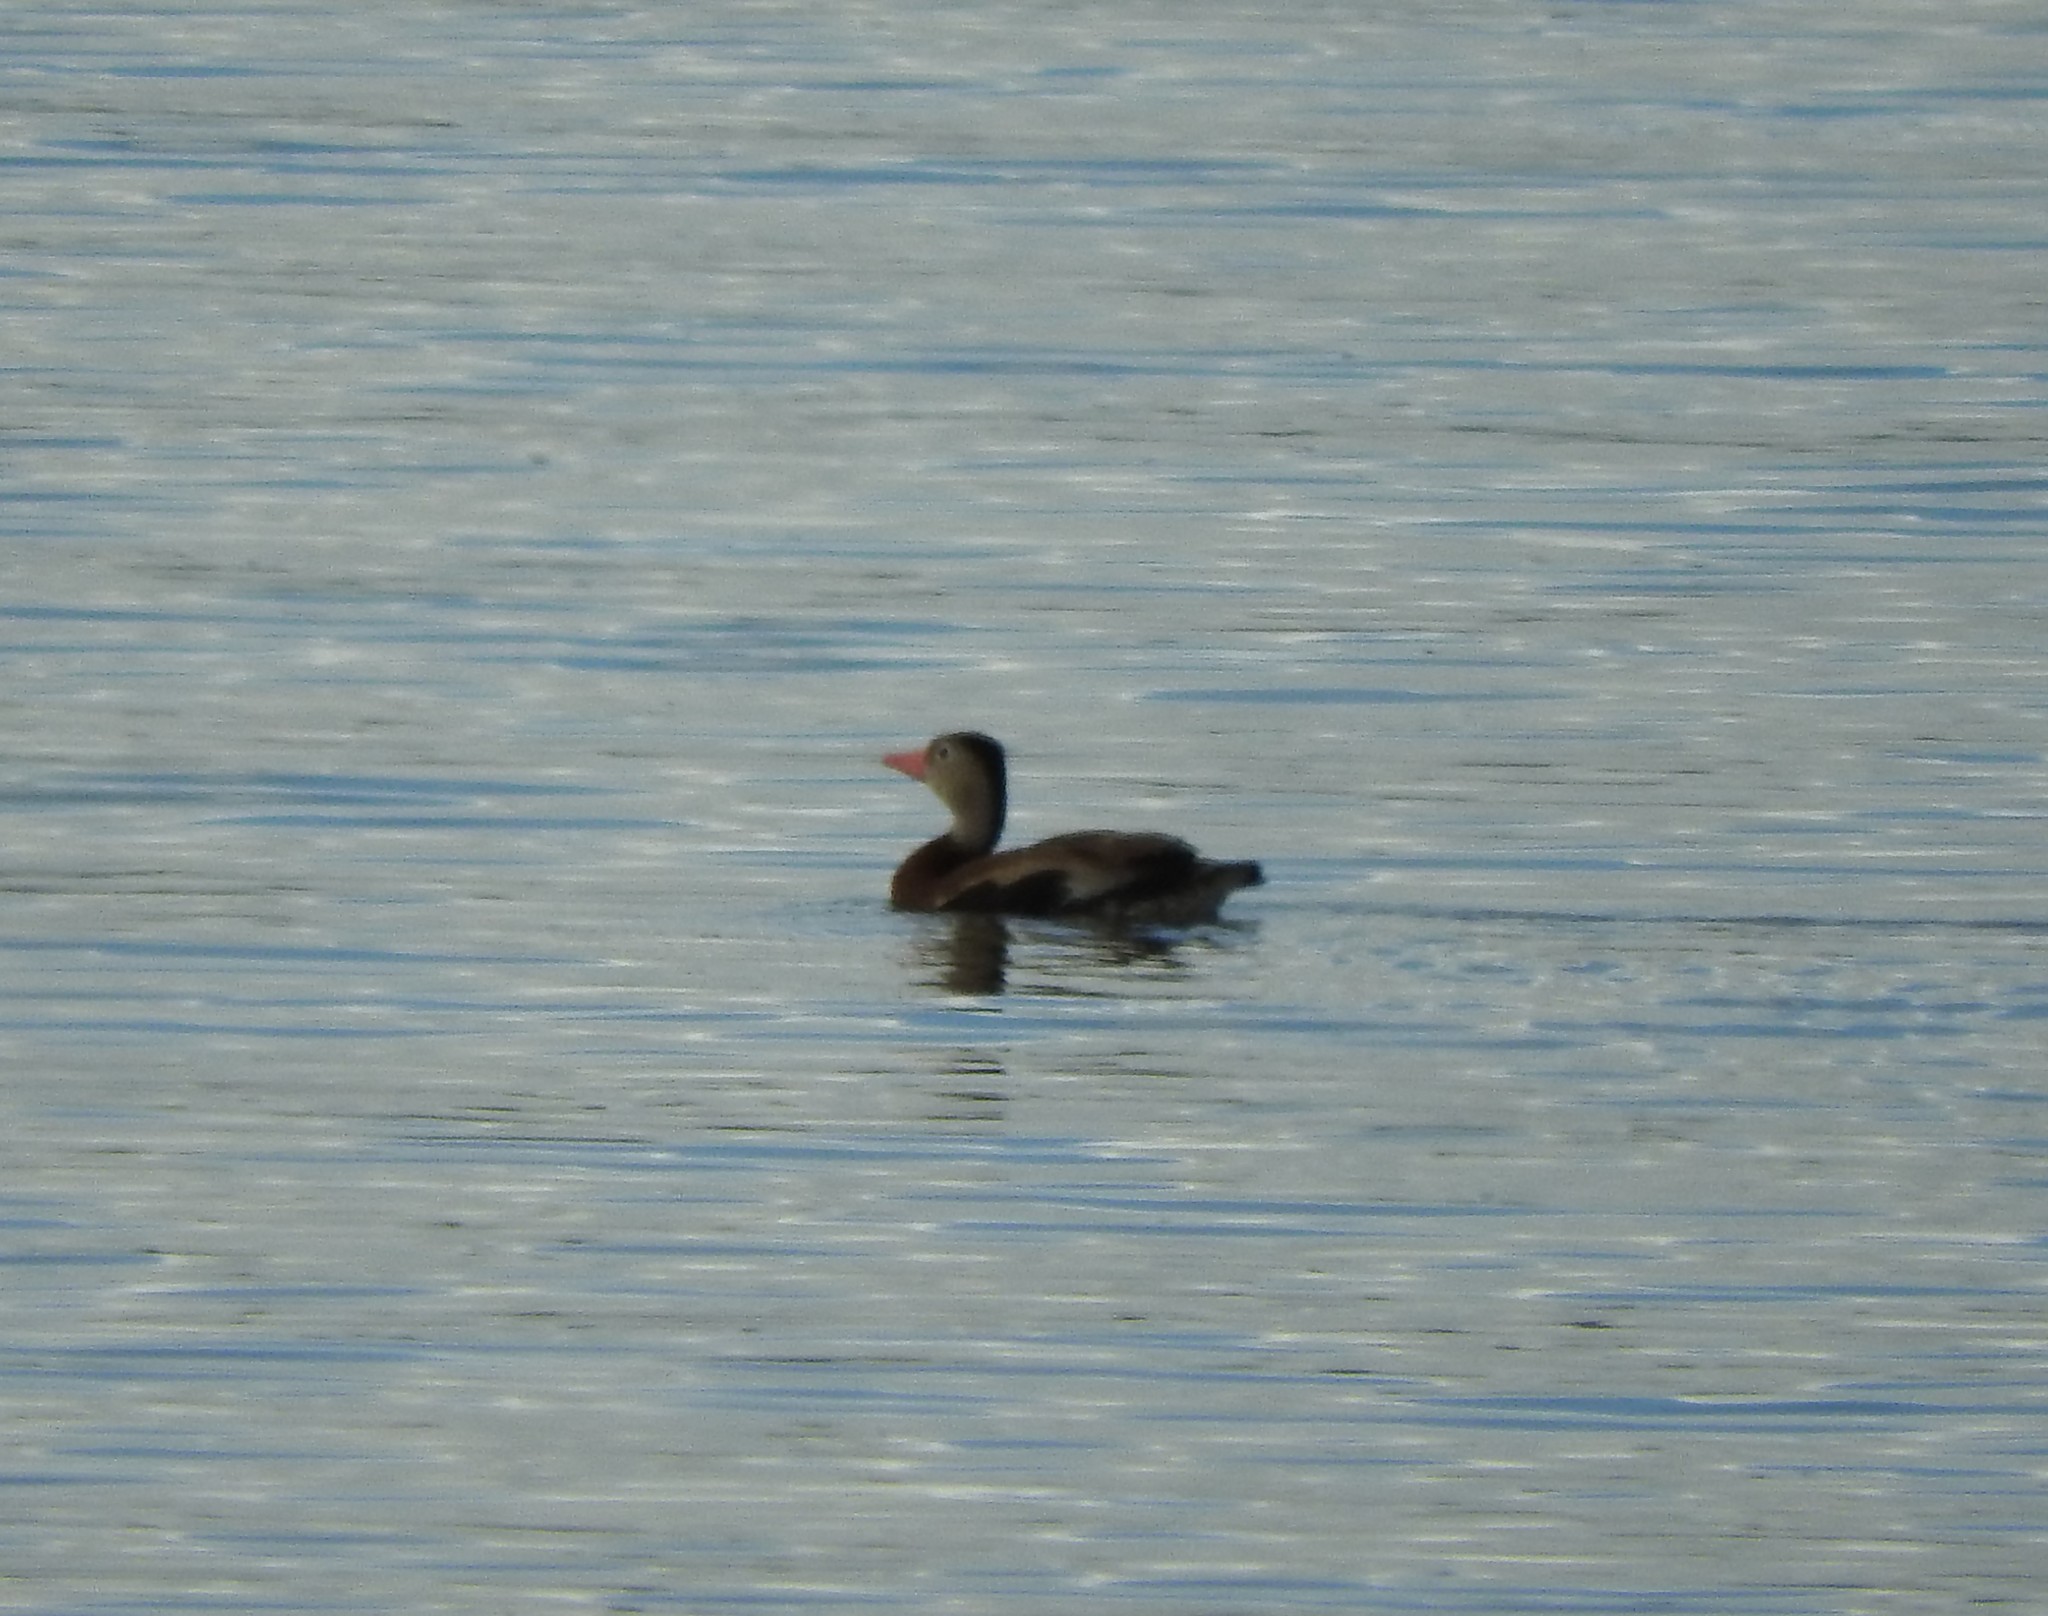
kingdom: Animalia
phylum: Chordata
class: Aves
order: Anseriformes
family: Anatidae
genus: Dendrocygna
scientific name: Dendrocygna autumnalis
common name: Black-bellied whistling duck
